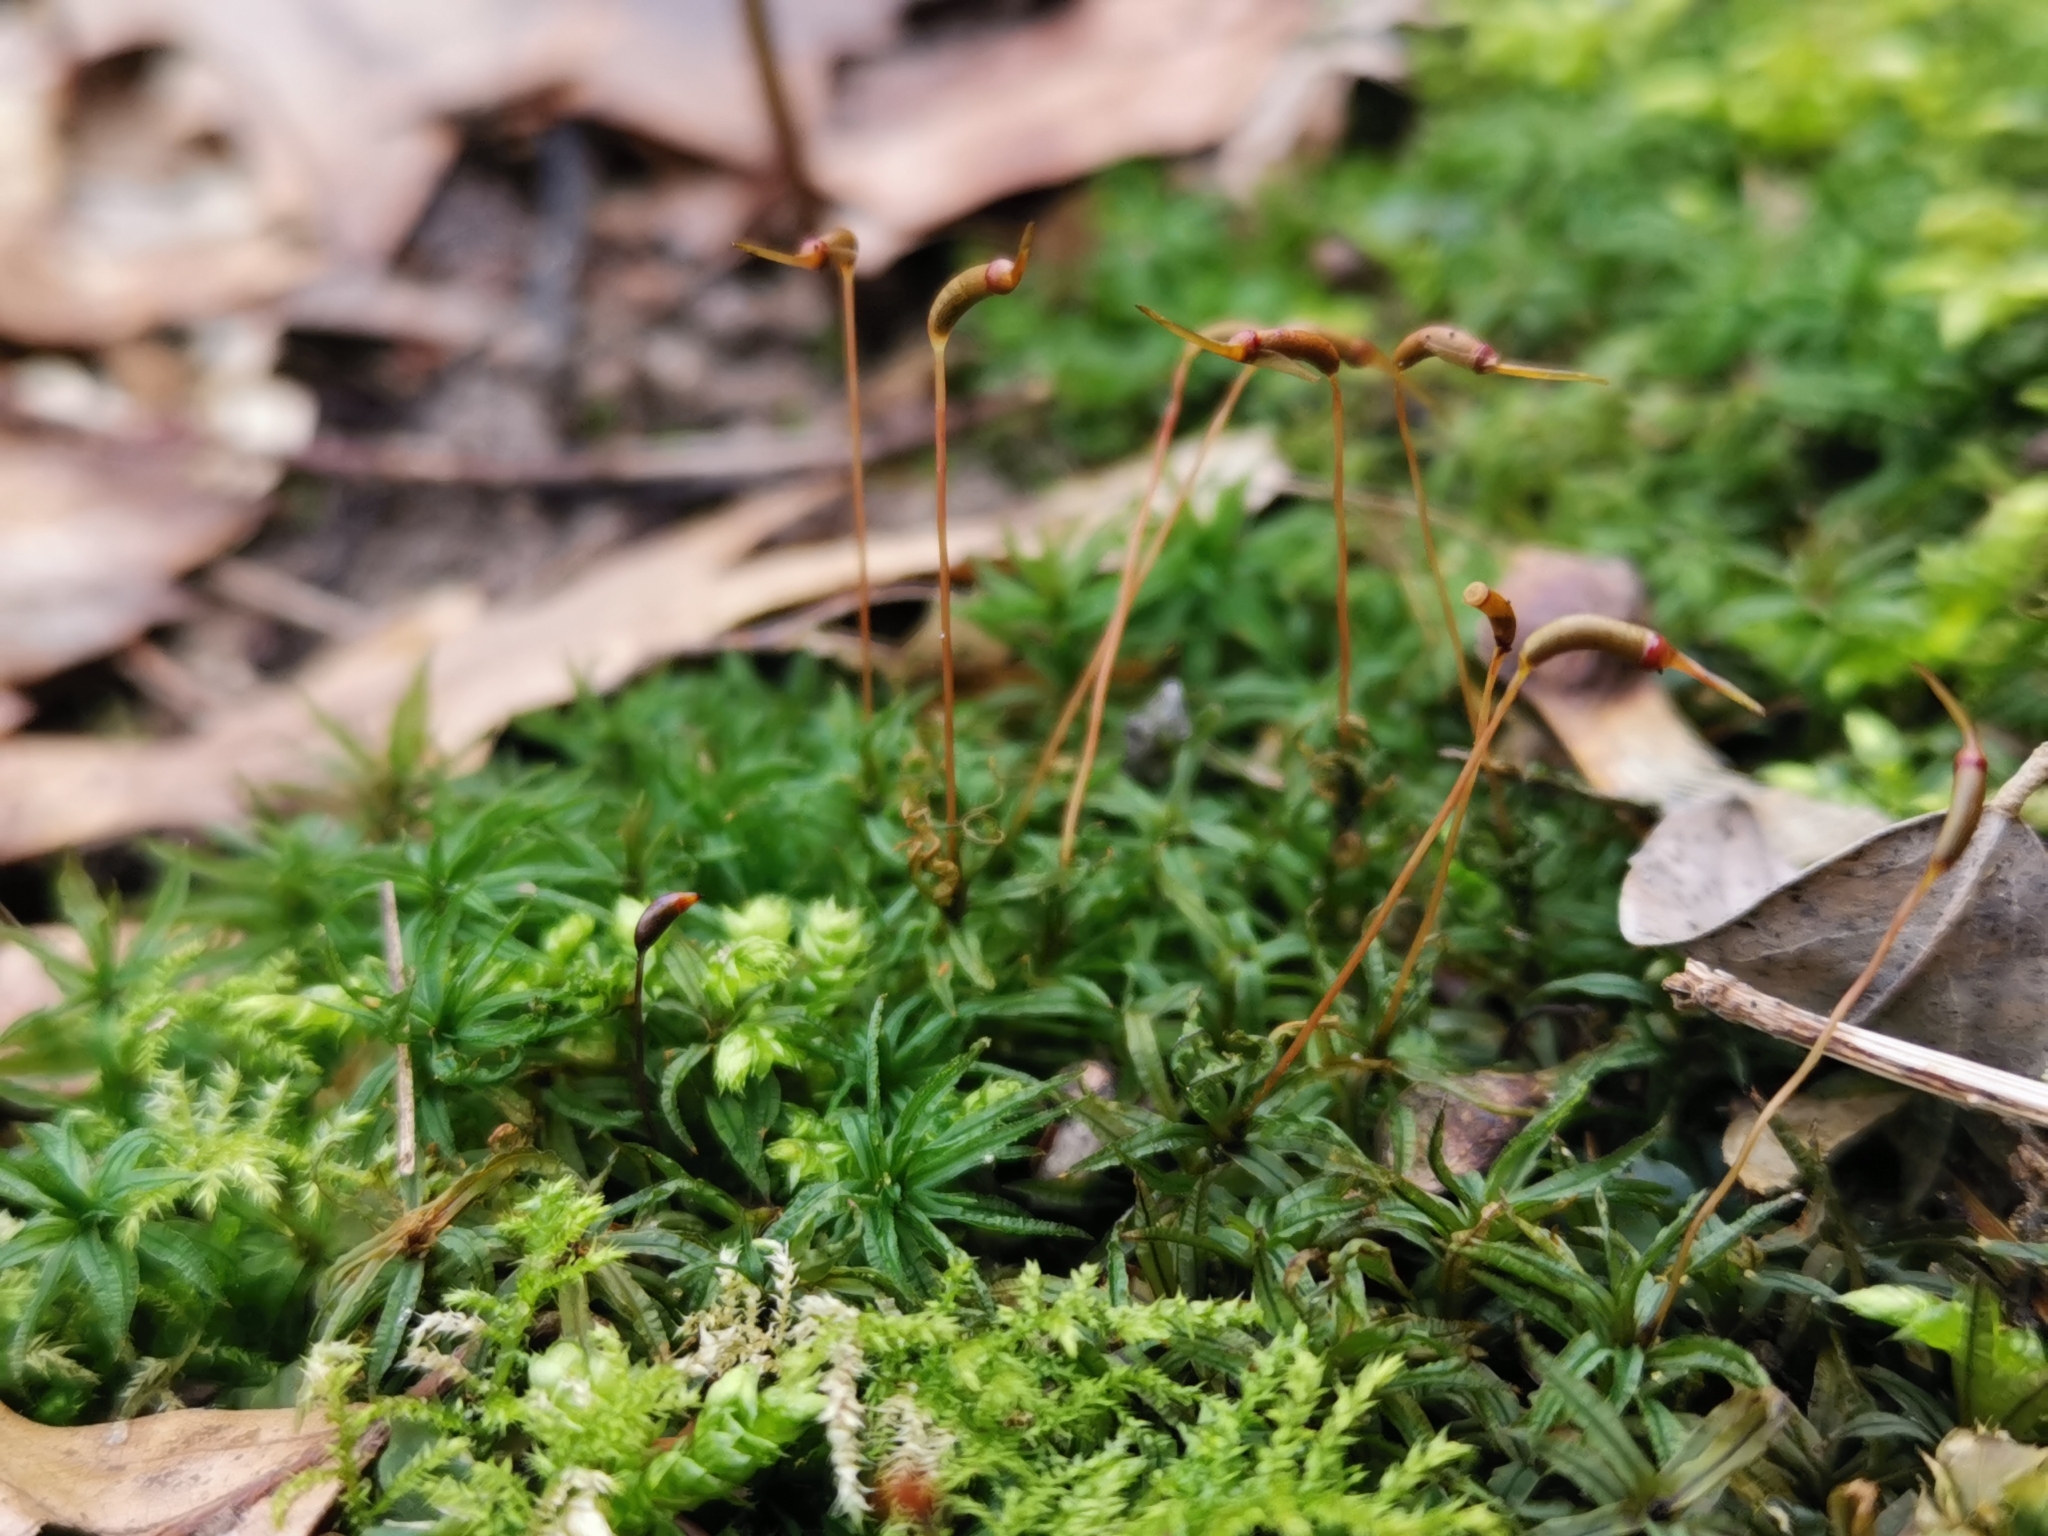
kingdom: Plantae
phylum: Bryophyta
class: Polytrichopsida
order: Polytrichales
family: Polytrichaceae
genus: Atrichum
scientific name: Atrichum undulatum
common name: Common smoothcap
